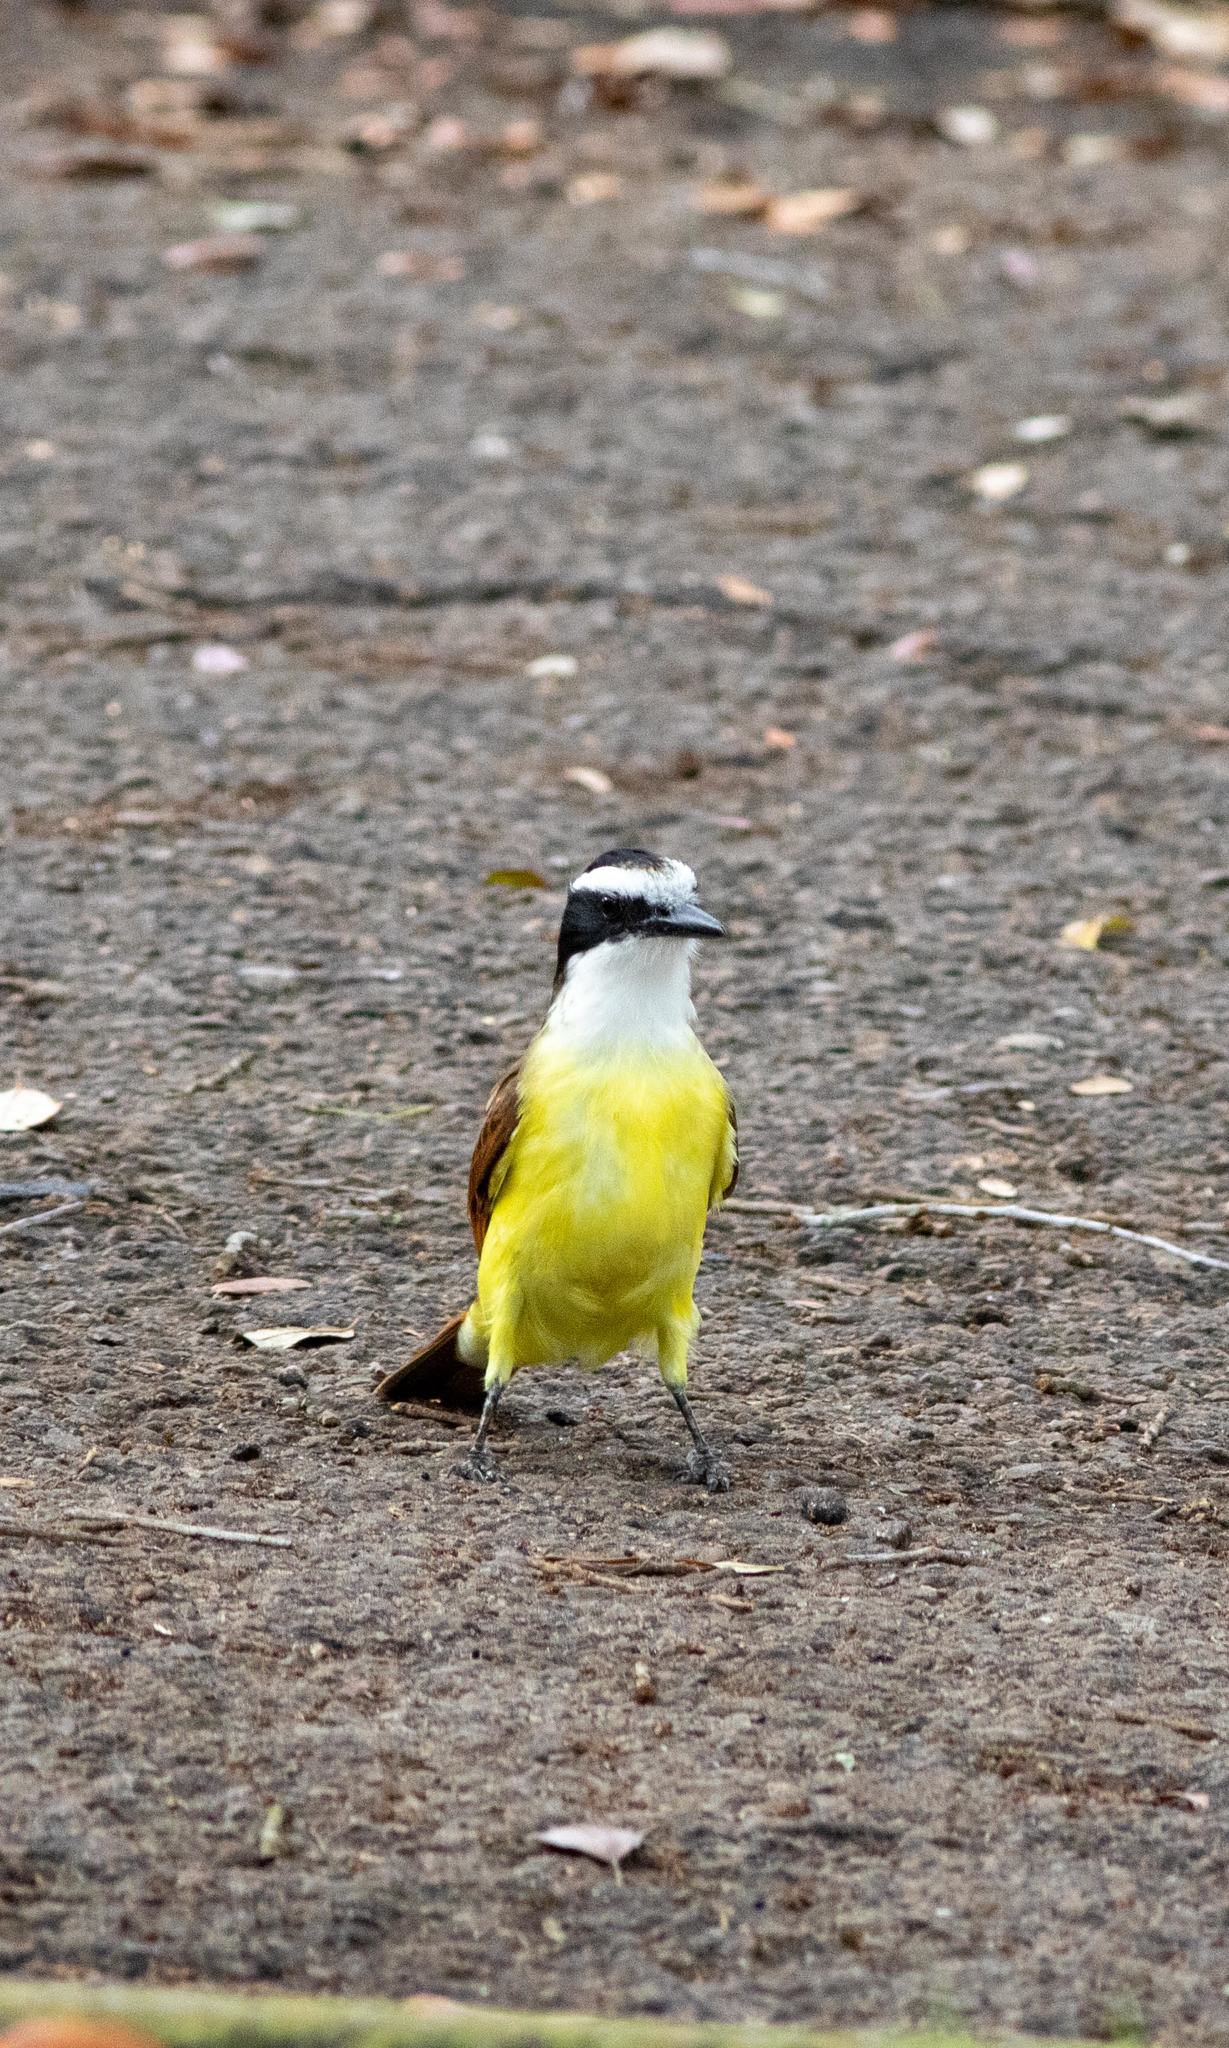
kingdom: Animalia
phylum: Chordata
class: Aves
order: Passeriformes
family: Tyrannidae
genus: Pitangus
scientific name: Pitangus sulphuratus
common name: Great kiskadee
